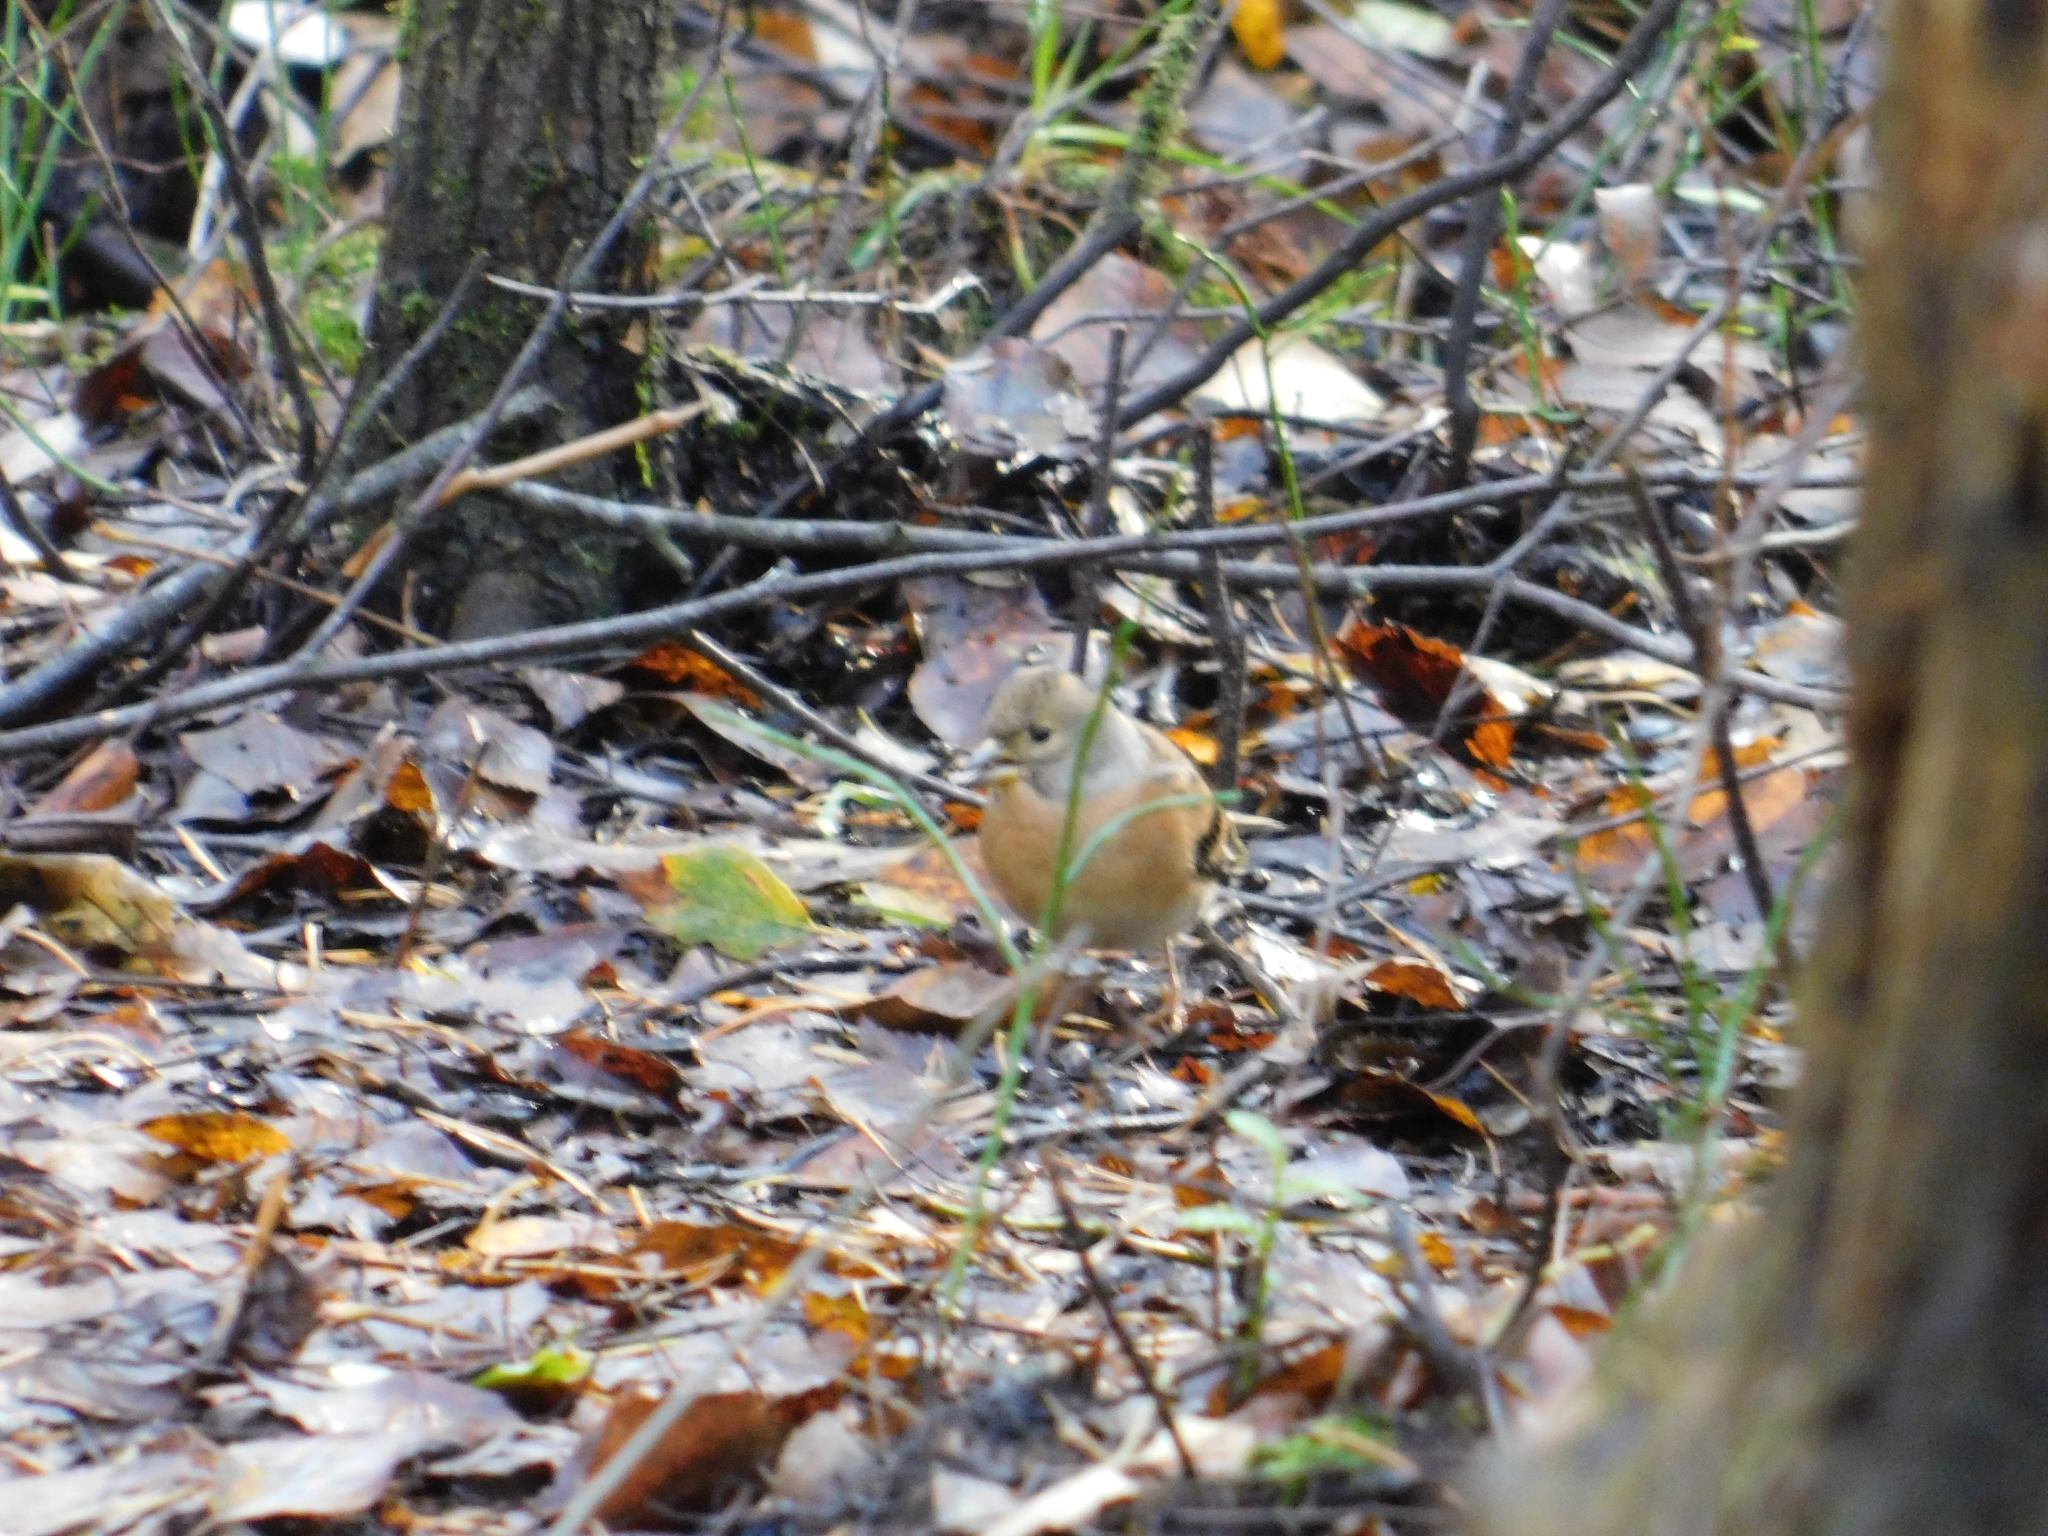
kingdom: Animalia
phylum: Chordata
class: Aves
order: Passeriformes
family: Fringillidae
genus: Fringilla
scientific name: Fringilla montifringilla
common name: Brambling
